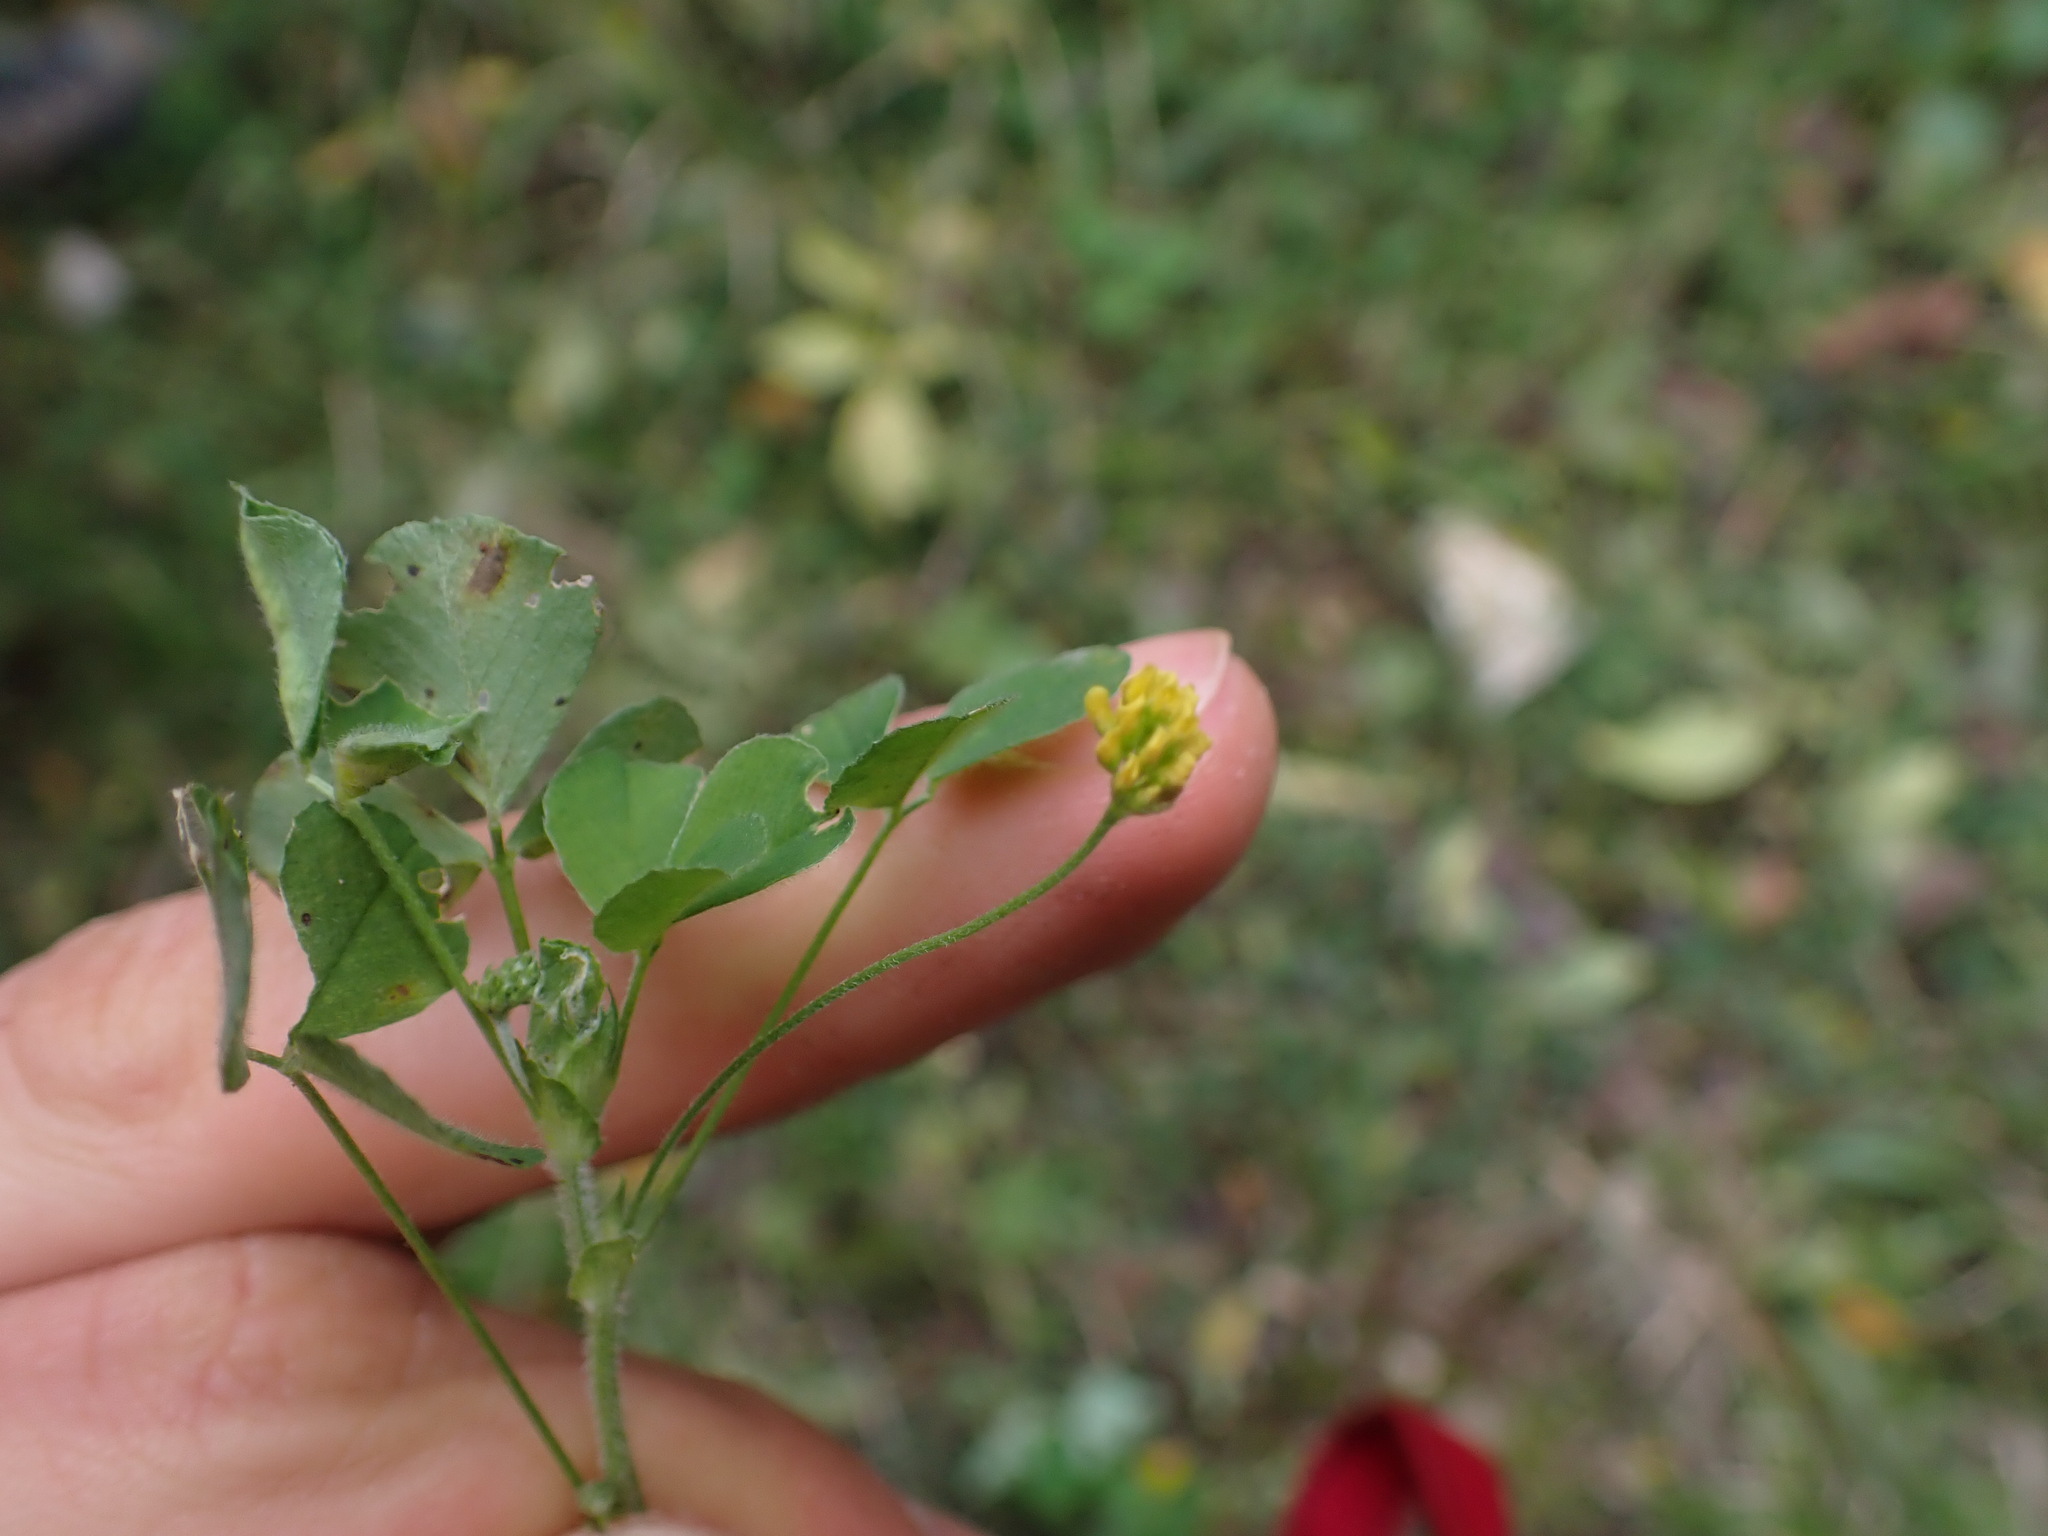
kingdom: Plantae
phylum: Tracheophyta
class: Magnoliopsida
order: Fabales
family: Fabaceae
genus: Medicago
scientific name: Medicago lupulina
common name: Black medick
